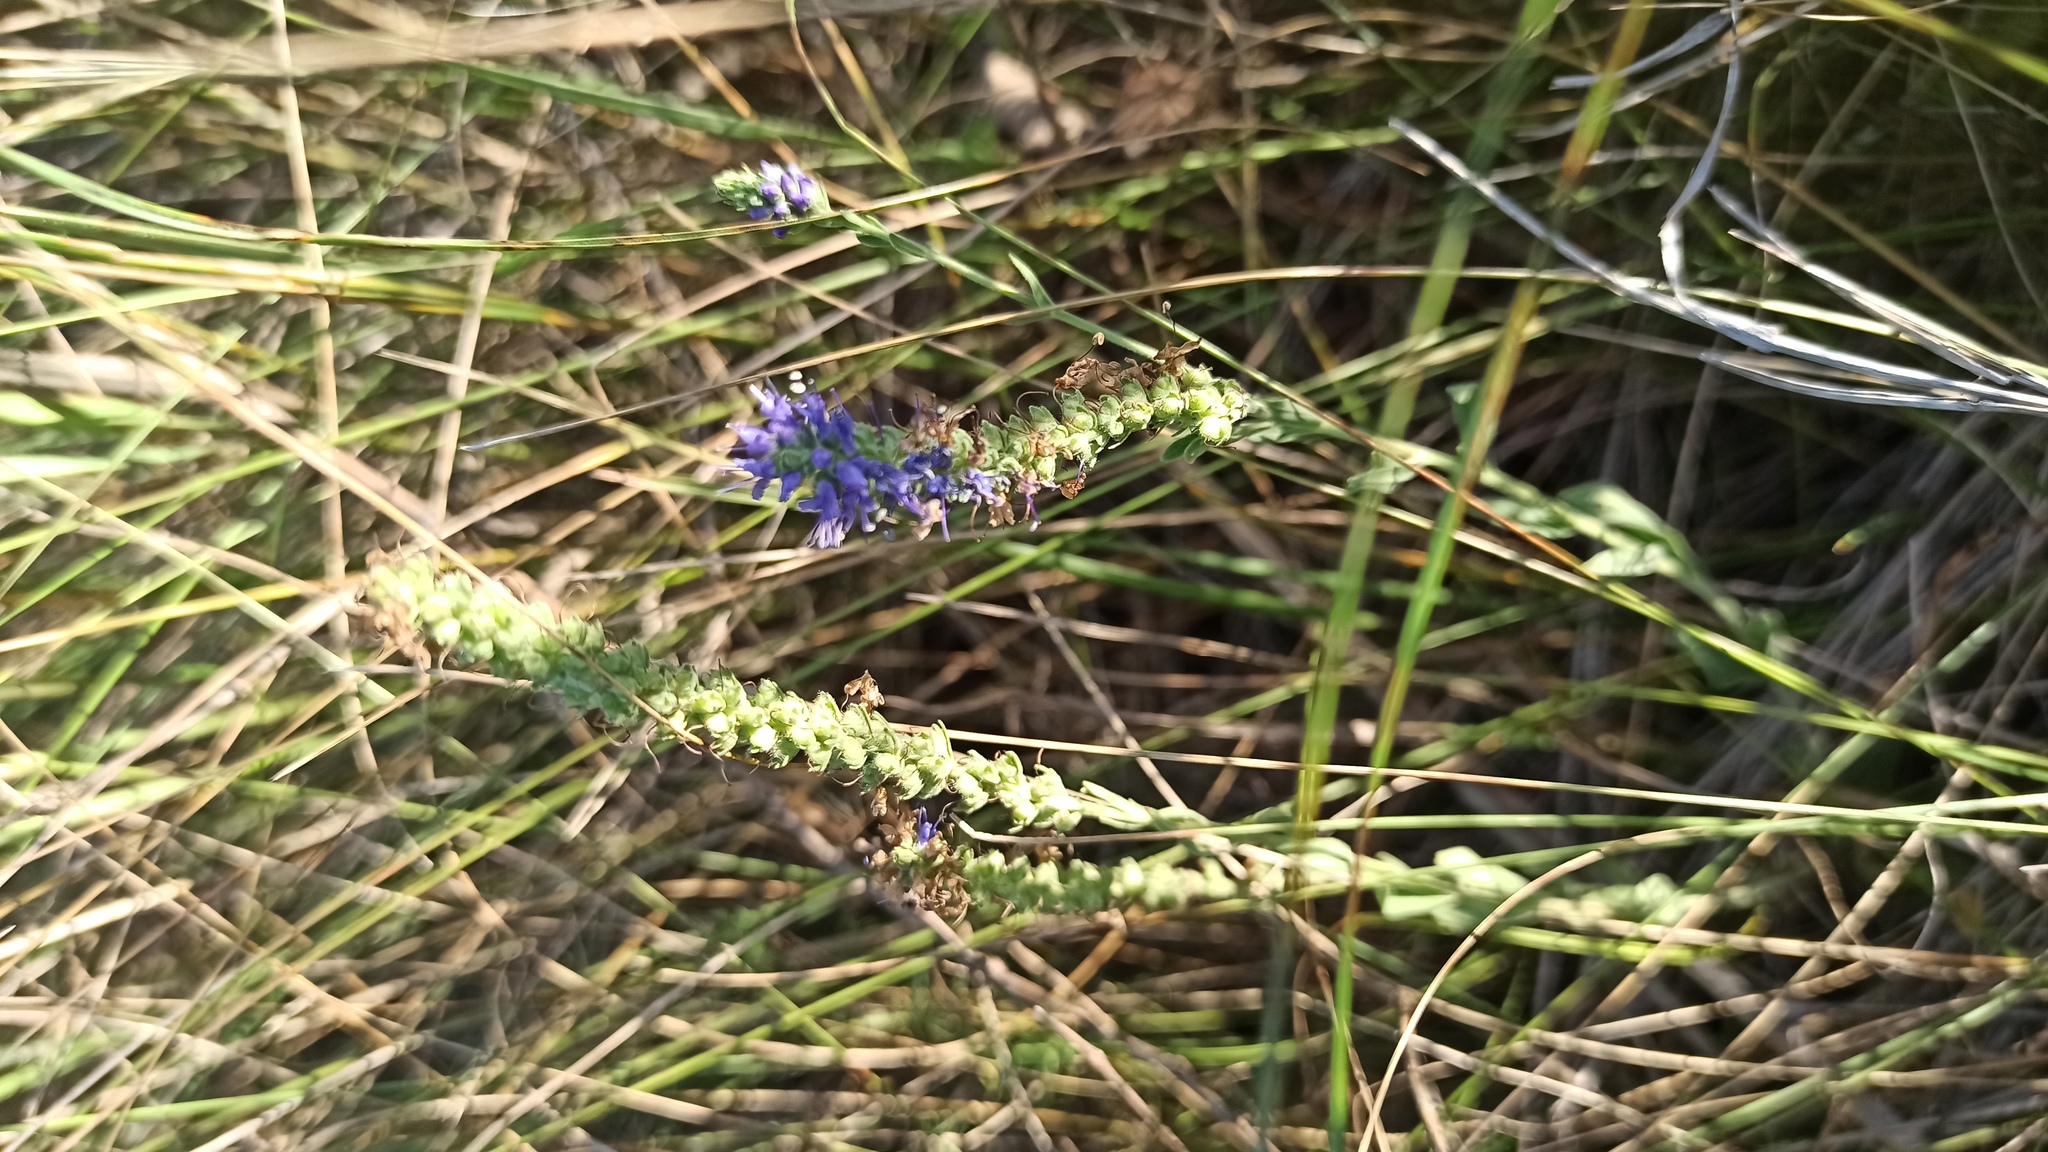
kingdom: Plantae
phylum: Tracheophyta
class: Magnoliopsida
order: Lamiales
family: Plantaginaceae
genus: Veronica
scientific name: Veronica spicata
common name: Spiked speedwell
